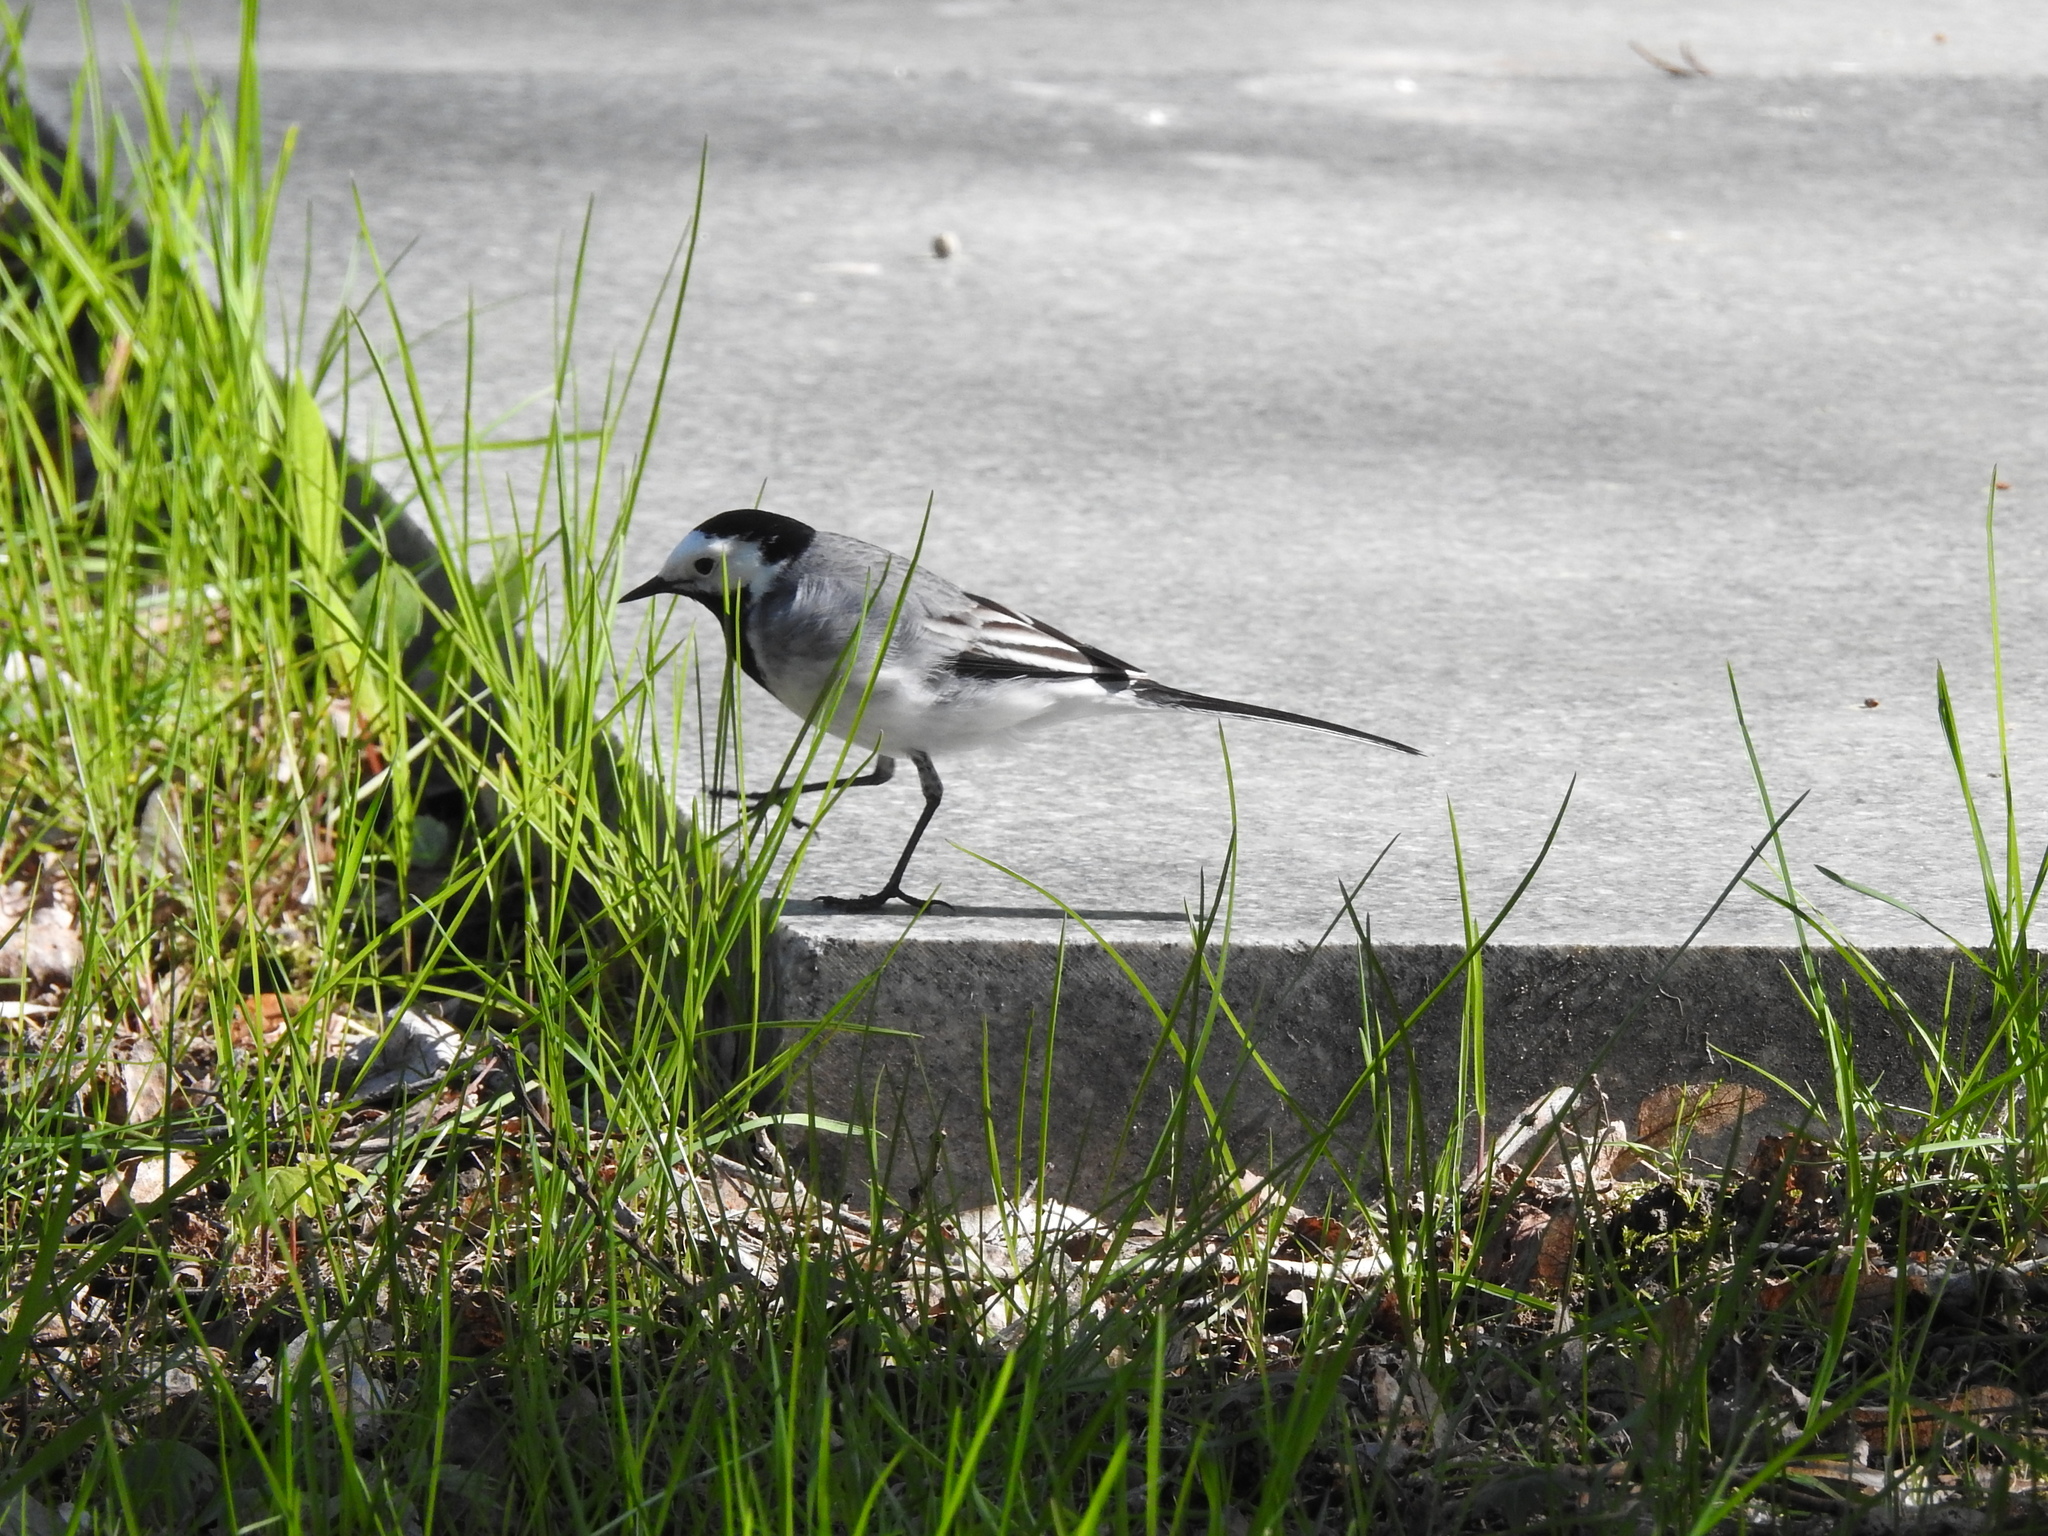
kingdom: Animalia
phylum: Chordata
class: Aves
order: Passeriformes
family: Motacillidae
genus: Motacilla
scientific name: Motacilla alba
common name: White wagtail
